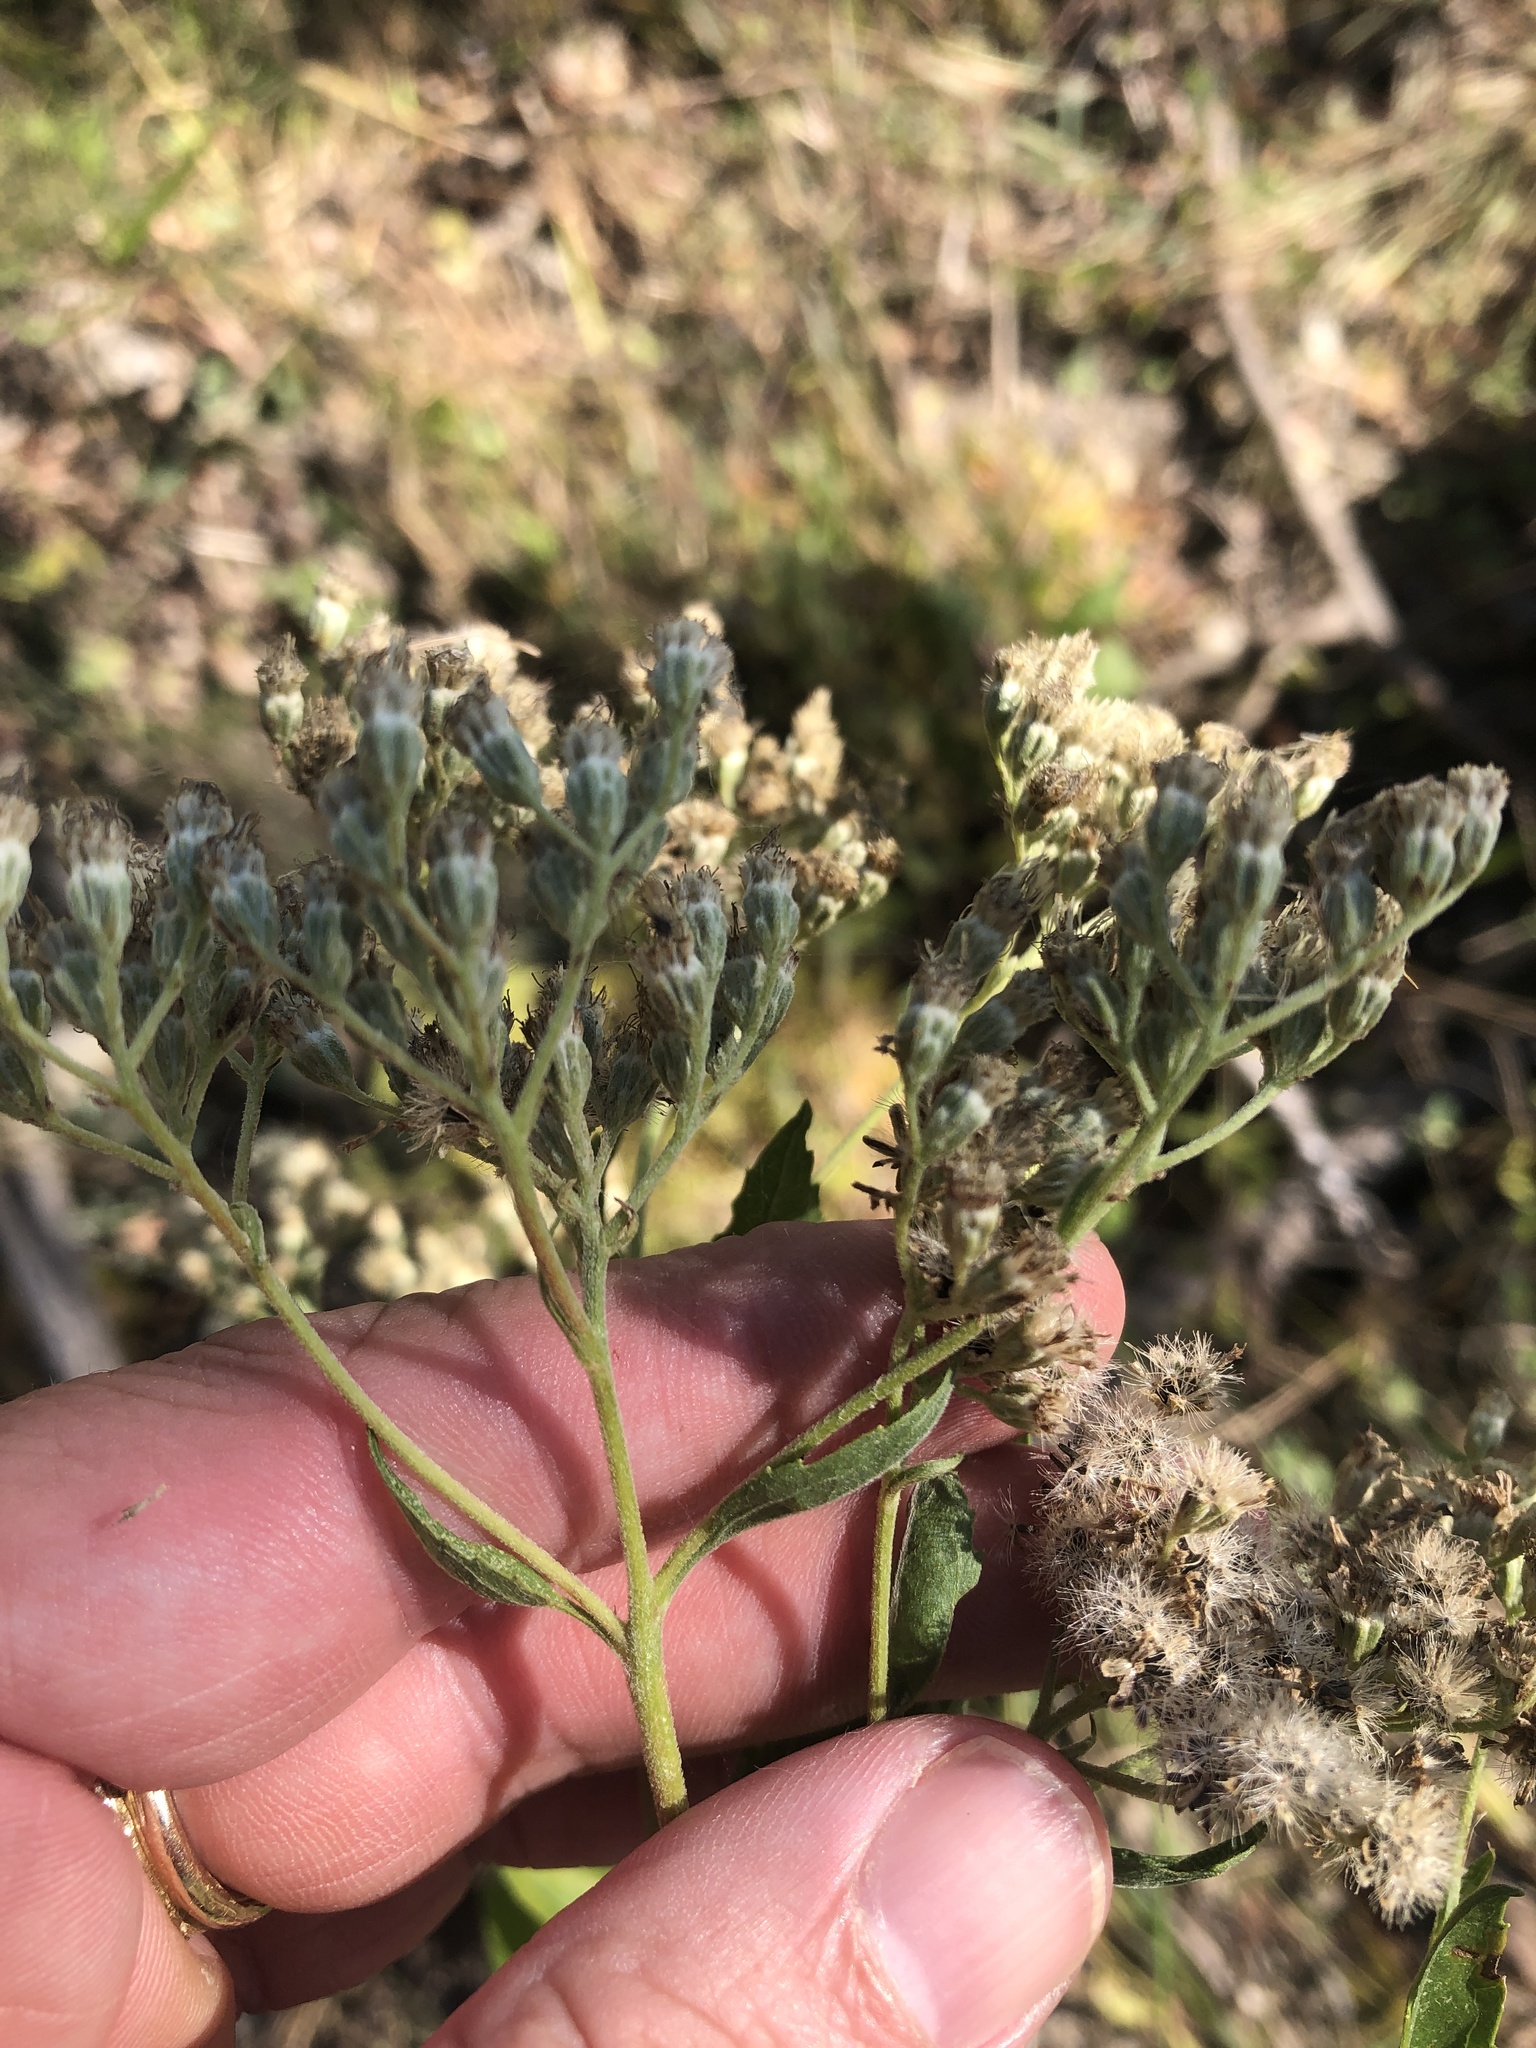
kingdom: Plantae
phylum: Tracheophyta
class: Magnoliopsida
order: Asterales
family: Asteraceae
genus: Eupatorium
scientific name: Eupatorium serotinum
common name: Late boneset
